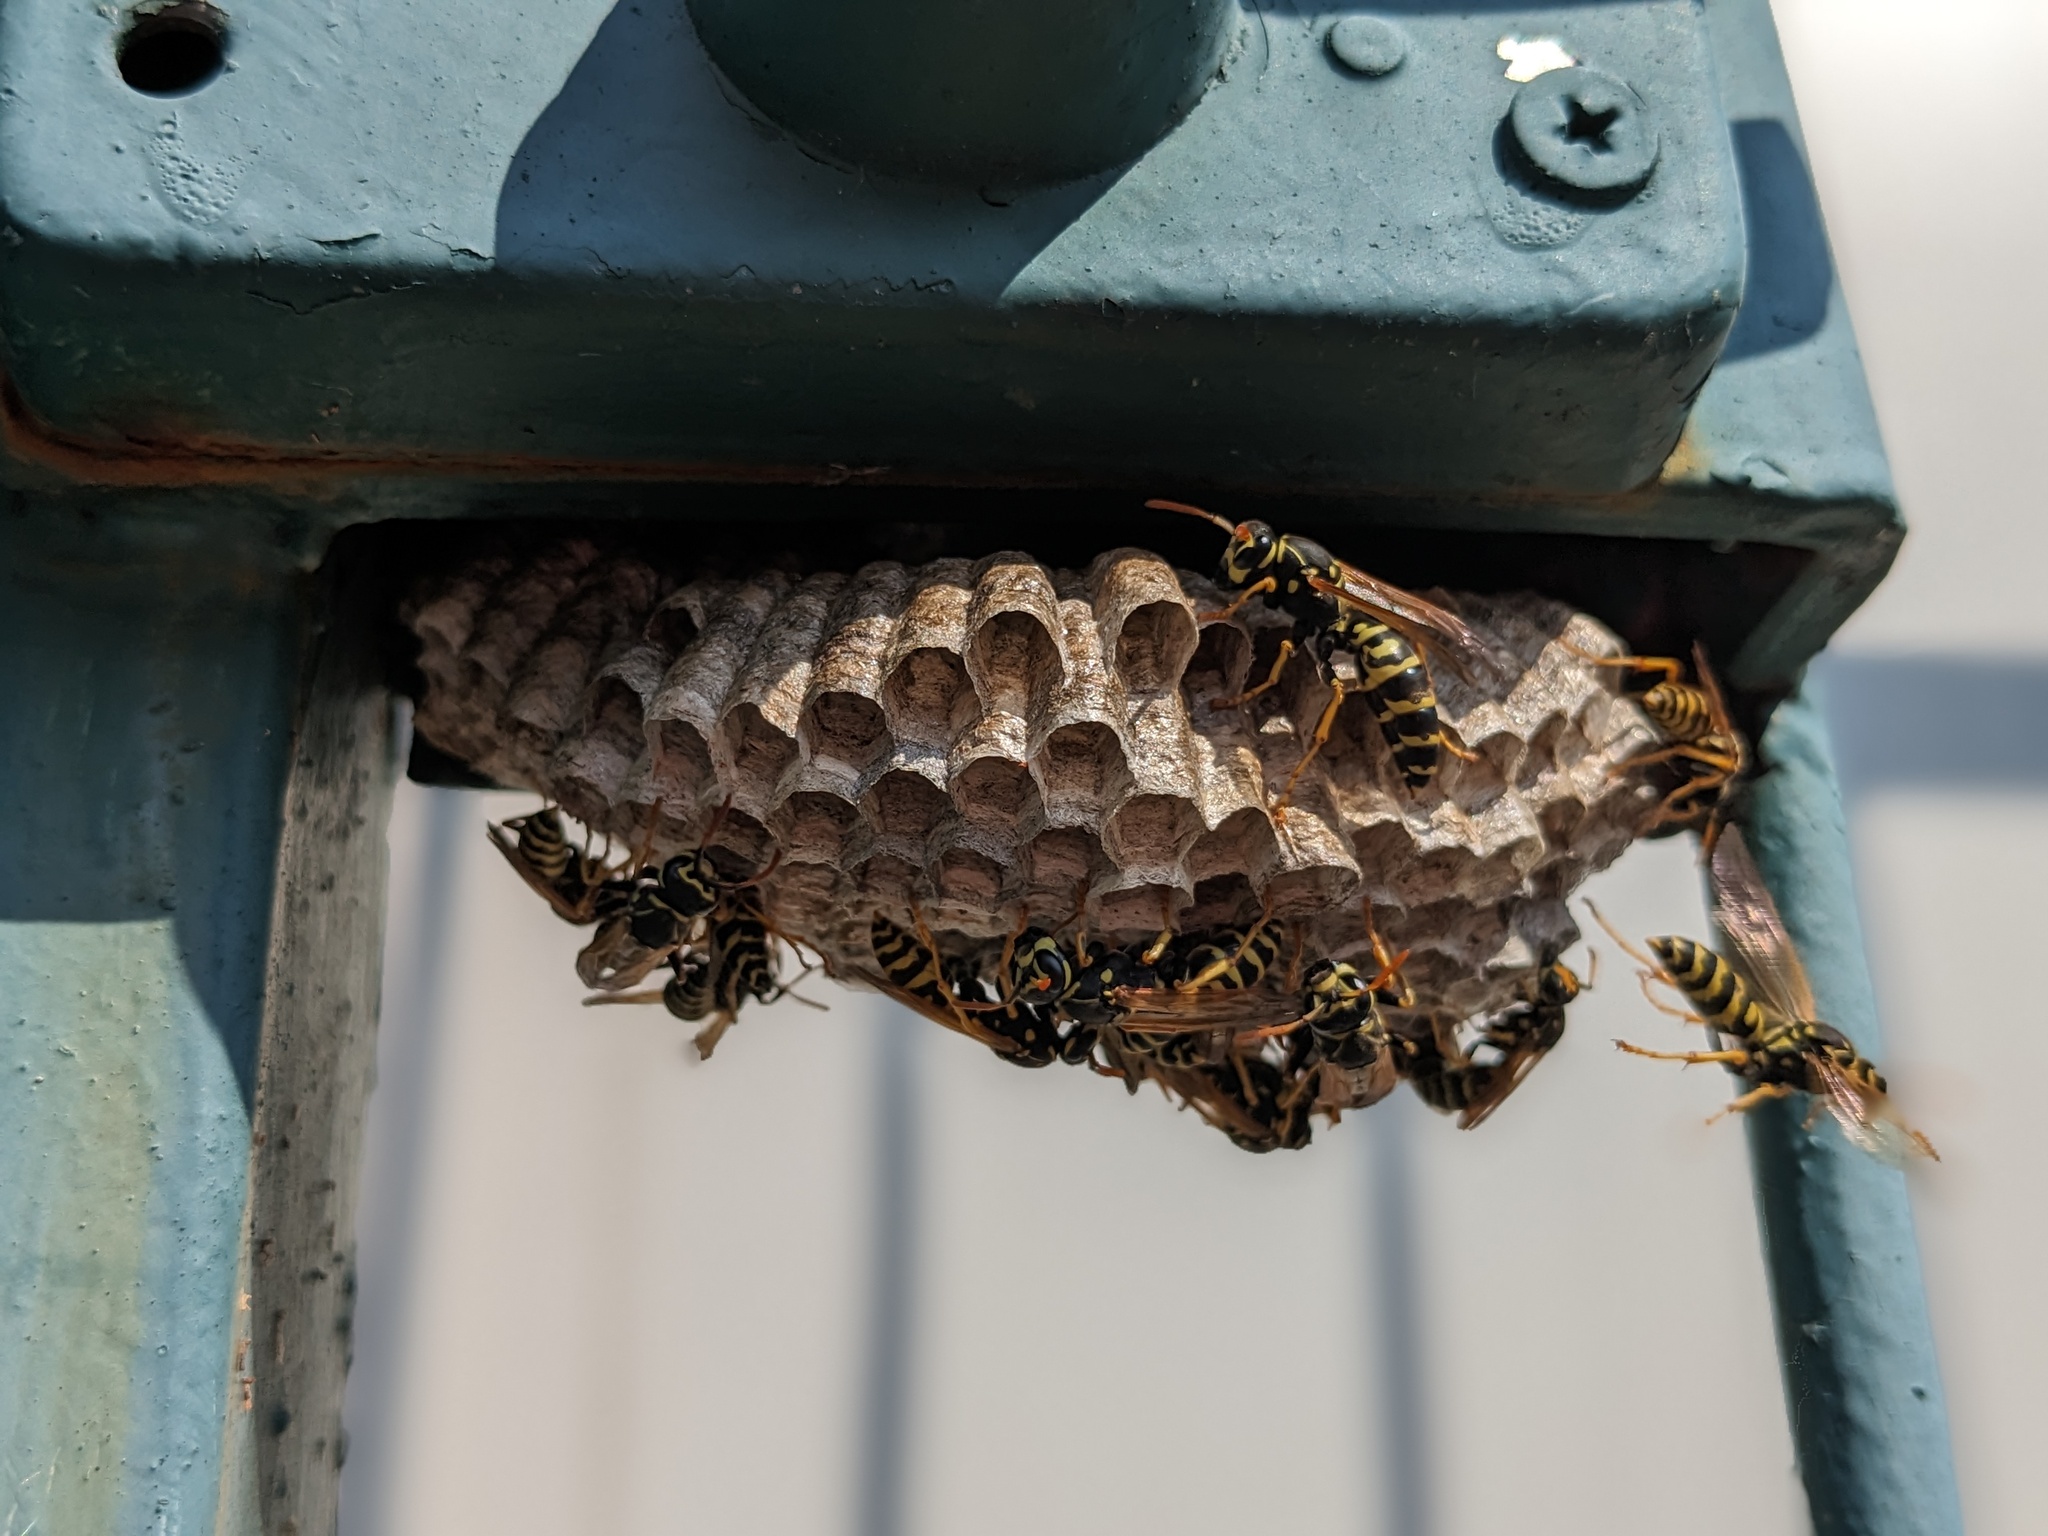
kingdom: Animalia
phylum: Arthropoda
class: Insecta
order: Hymenoptera
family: Eumenidae
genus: Polistes
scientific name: Polistes semenowi
